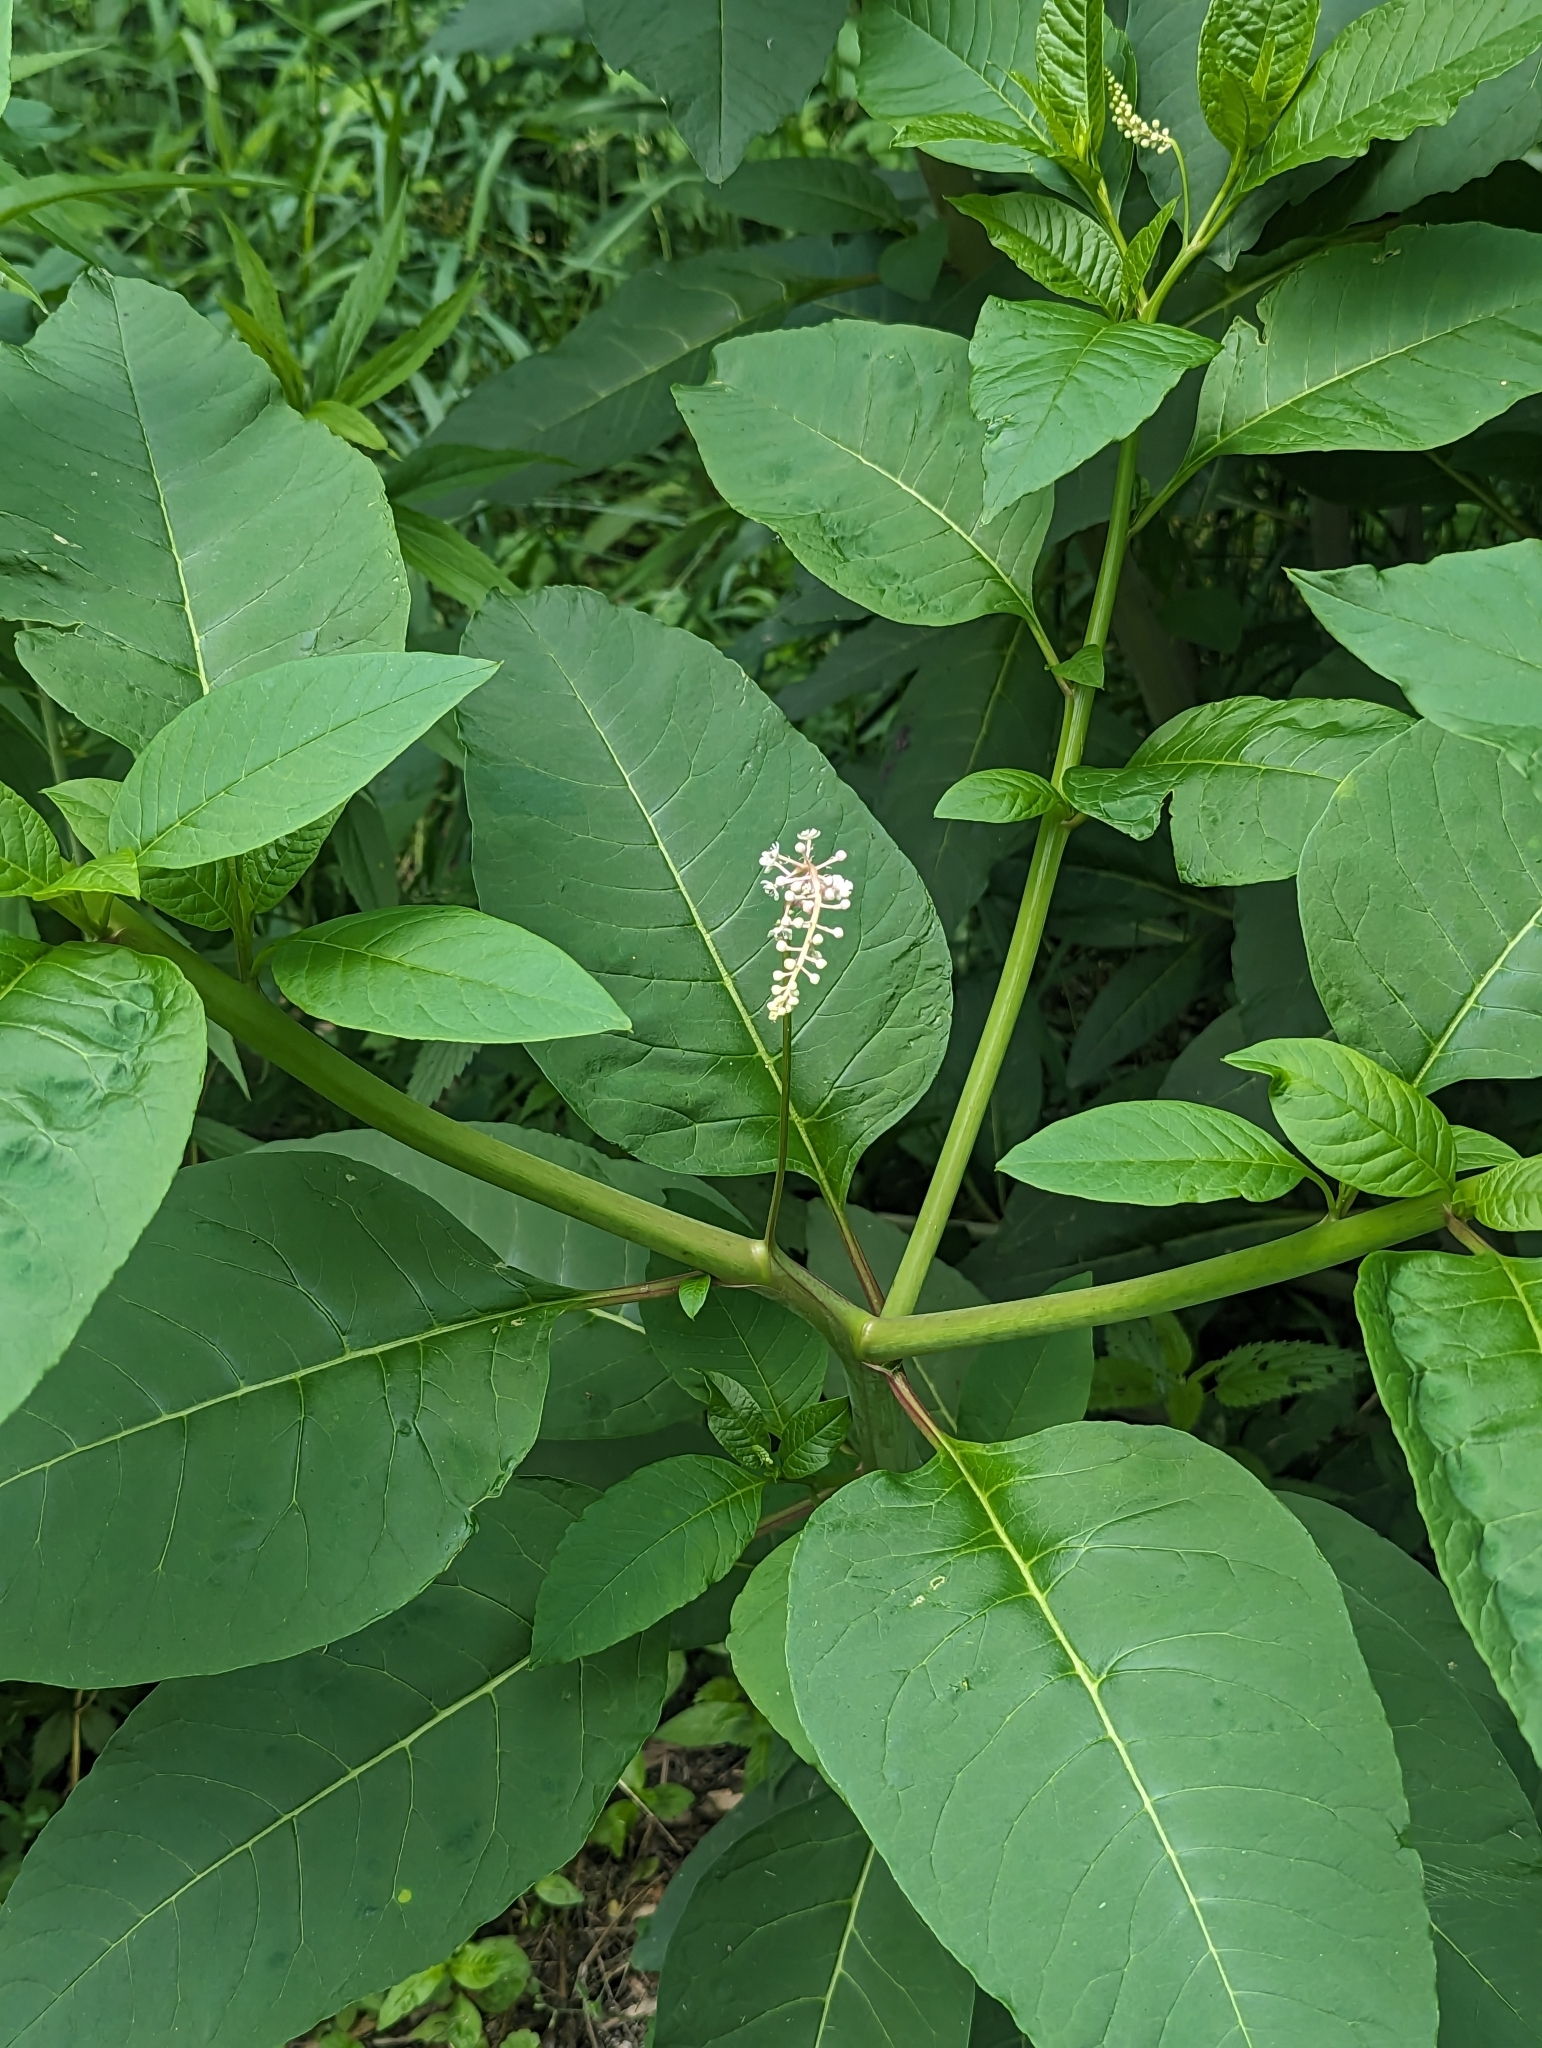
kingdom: Plantae
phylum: Tracheophyta
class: Magnoliopsida
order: Caryophyllales
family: Phytolaccaceae
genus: Phytolacca
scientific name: Phytolacca americana
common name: American pokeweed
